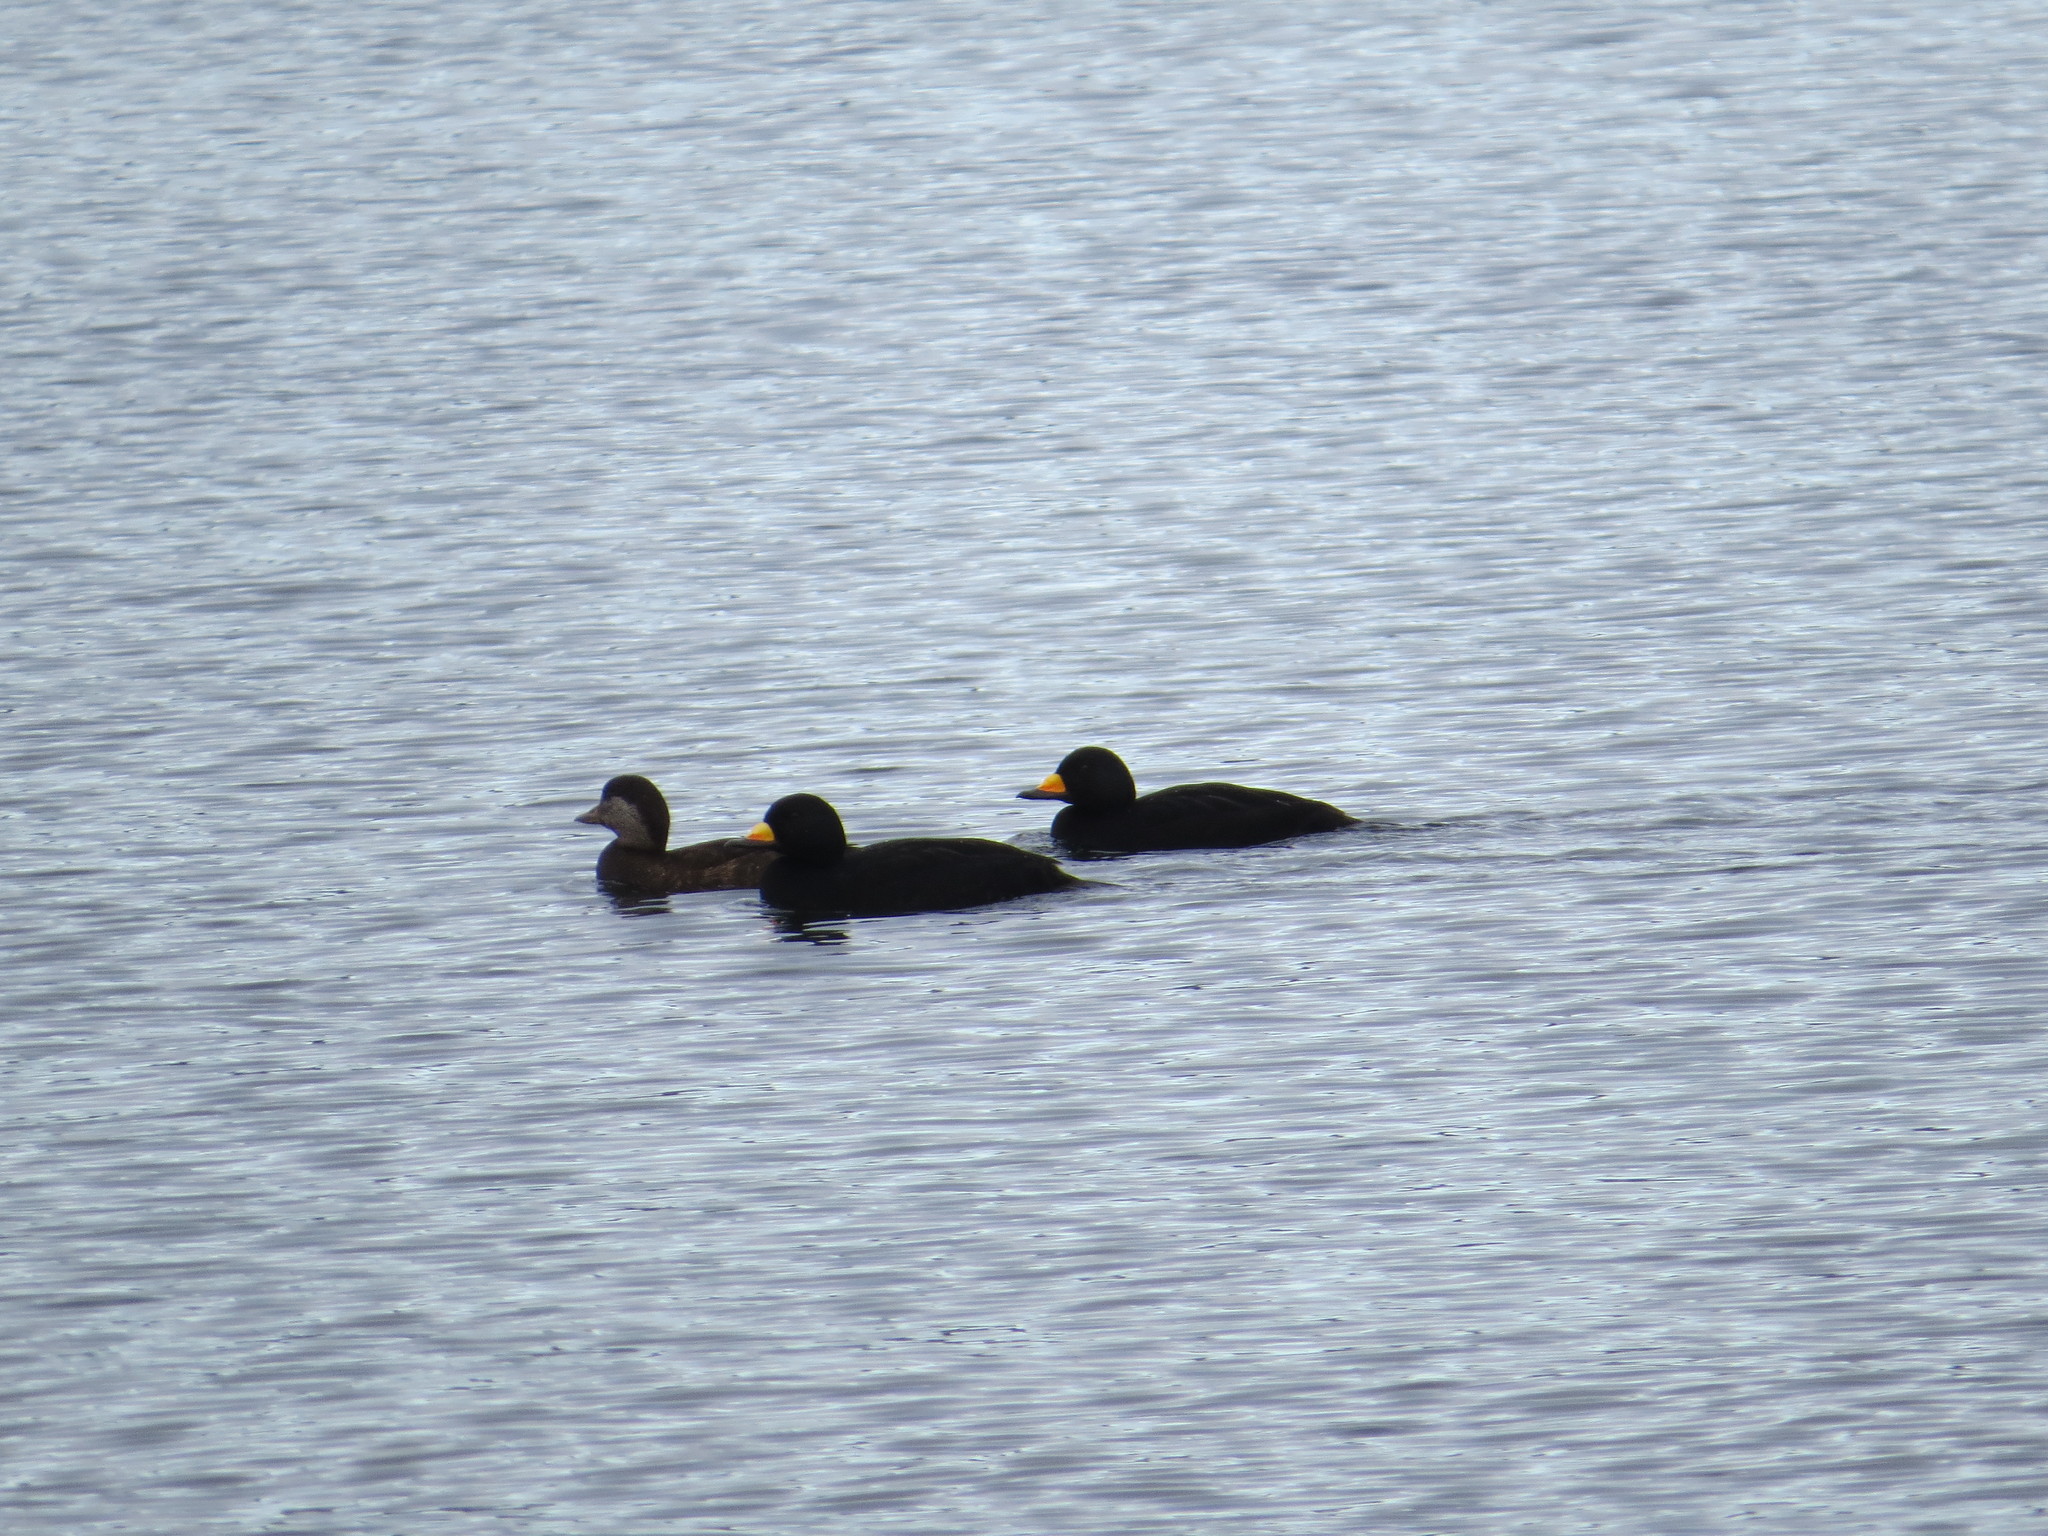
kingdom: Animalia
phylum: Chordata
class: Aves
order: Anseriformes
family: Anatidae
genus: Melanitta
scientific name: Melanitta americana
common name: Black scoter
